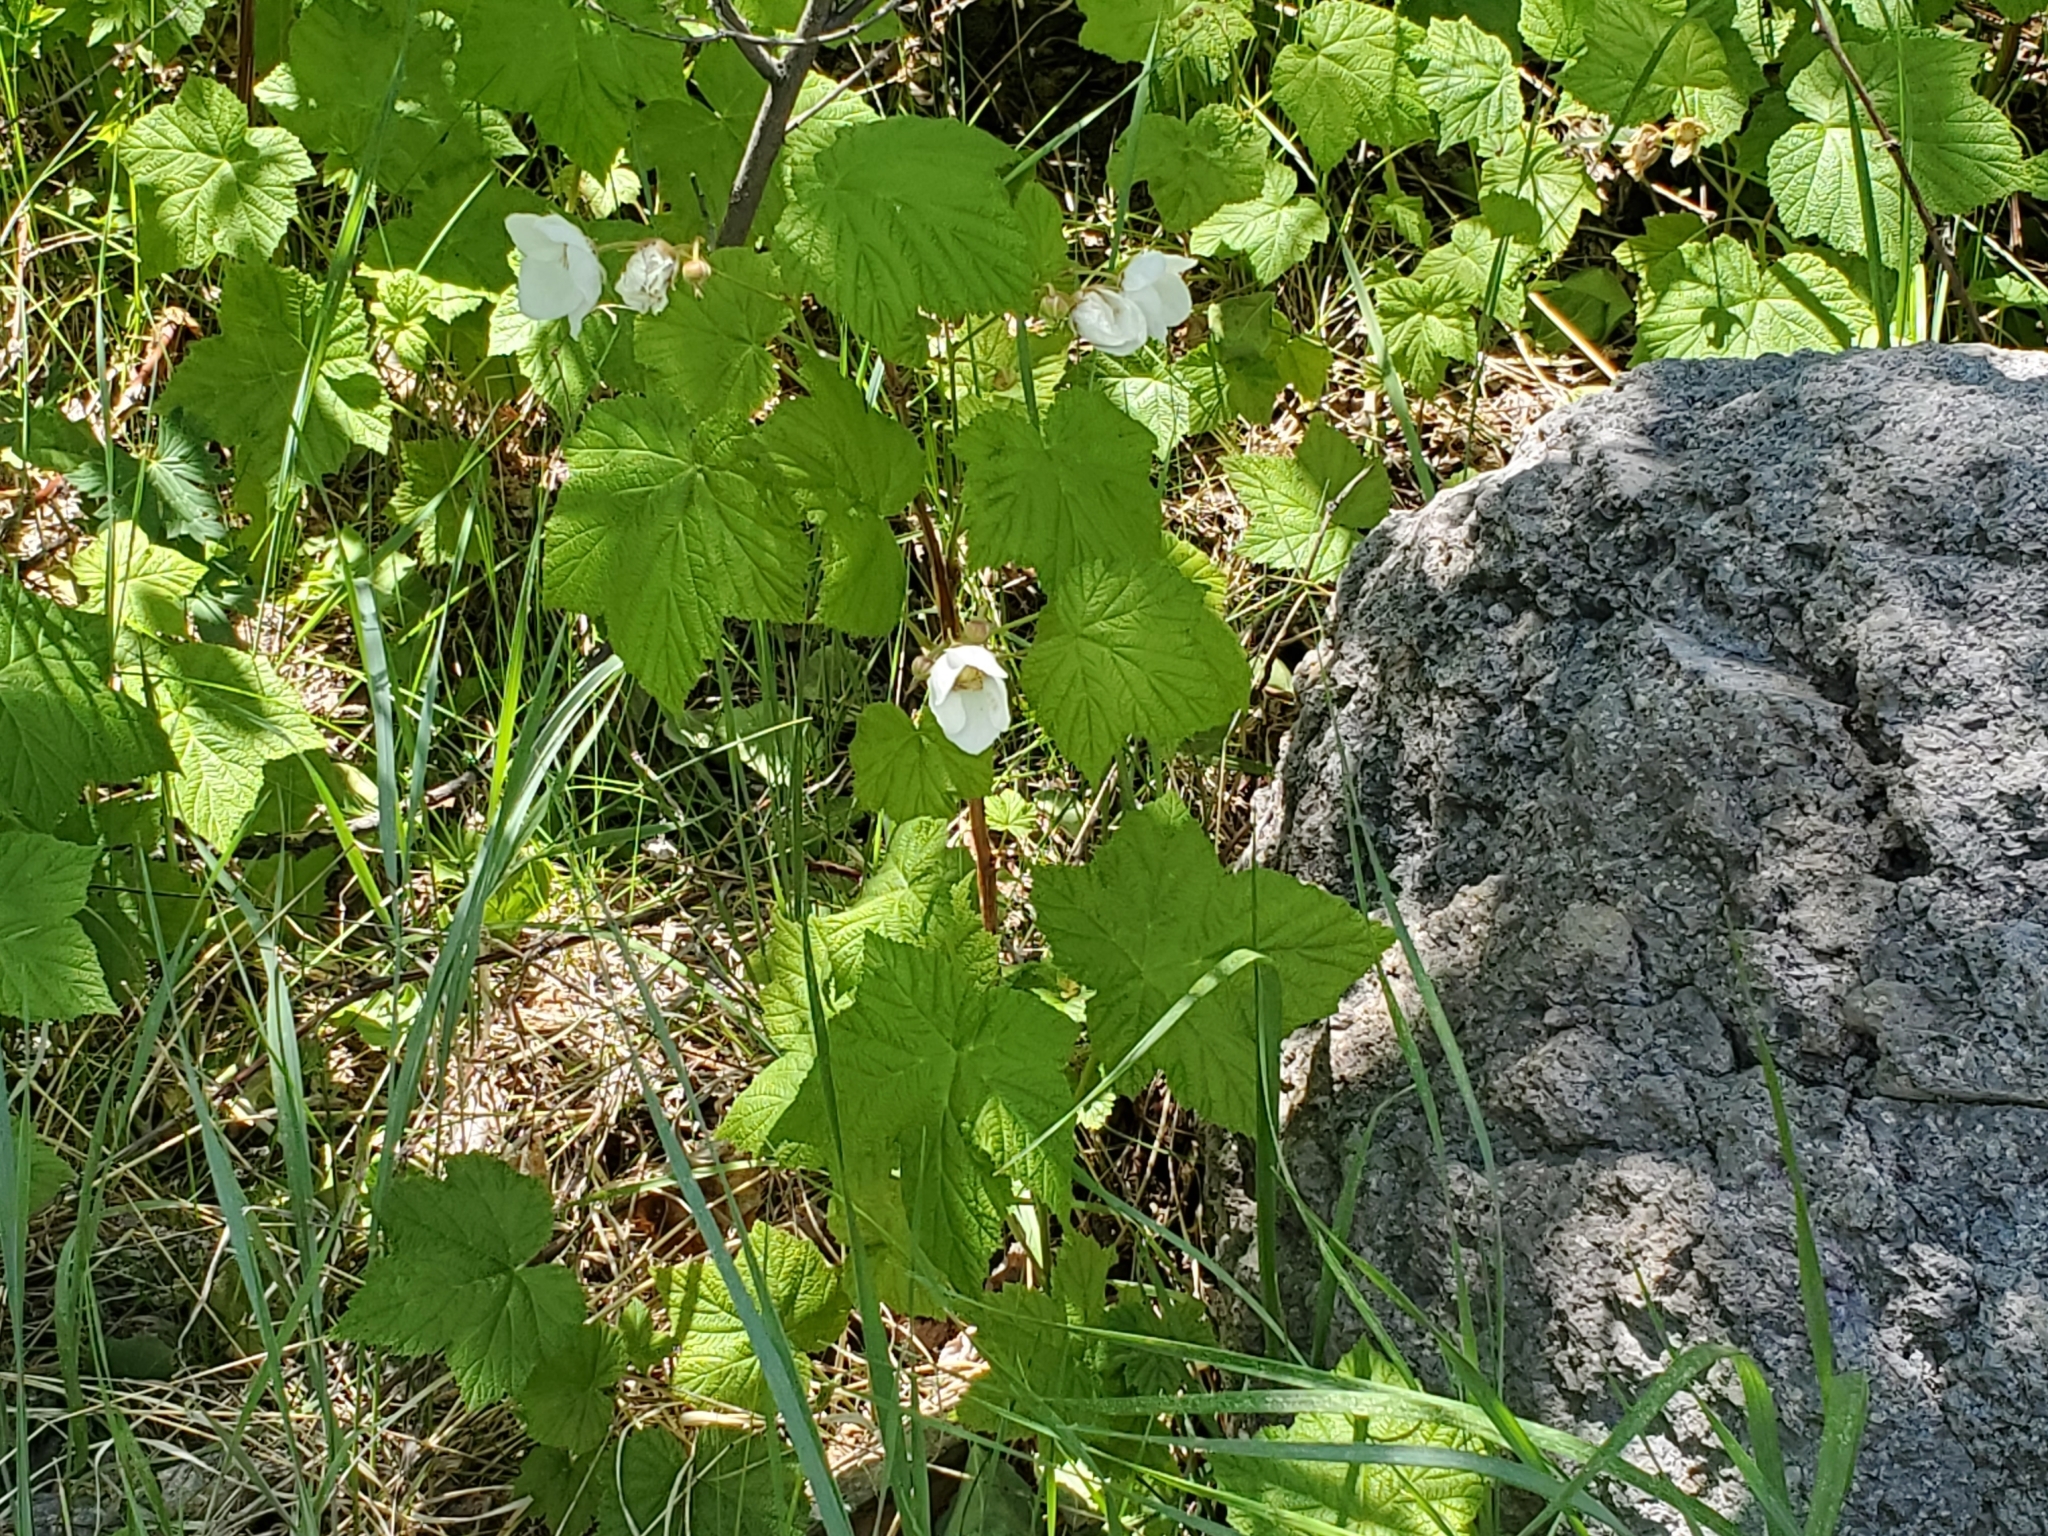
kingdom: Plantae
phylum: Tracheophyta
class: Magnoliopsida
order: Rosales
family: Rosaceae
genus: Rubus
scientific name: Rubus parviflorus
